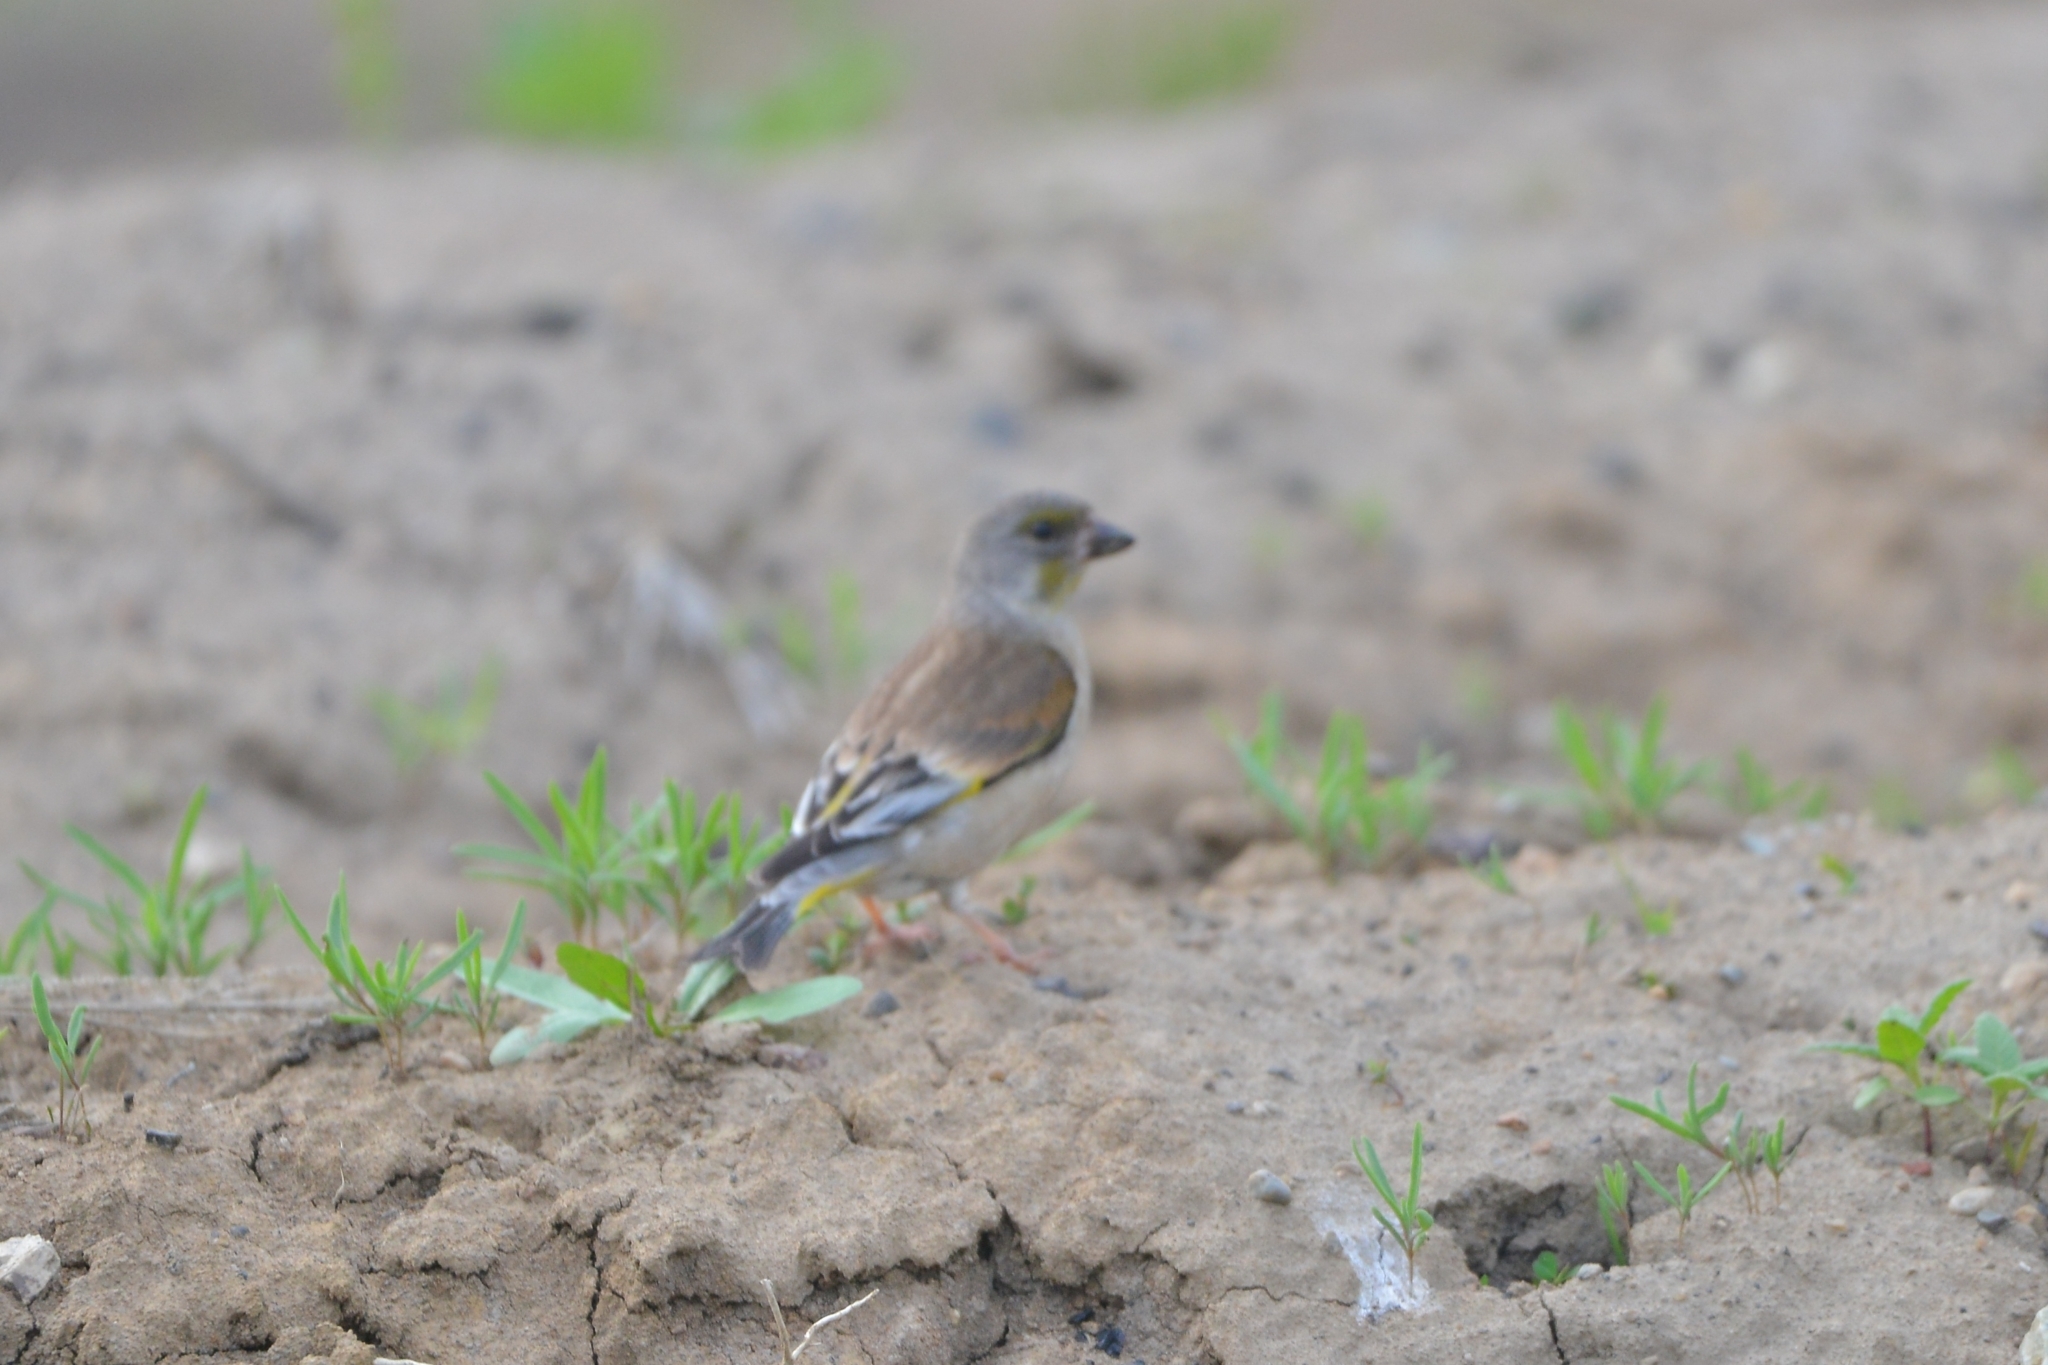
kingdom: Plantae
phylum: Tracheophyta
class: Liliopsida
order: Poales
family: Poaceae
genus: Chloris
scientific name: Chloris sinica
